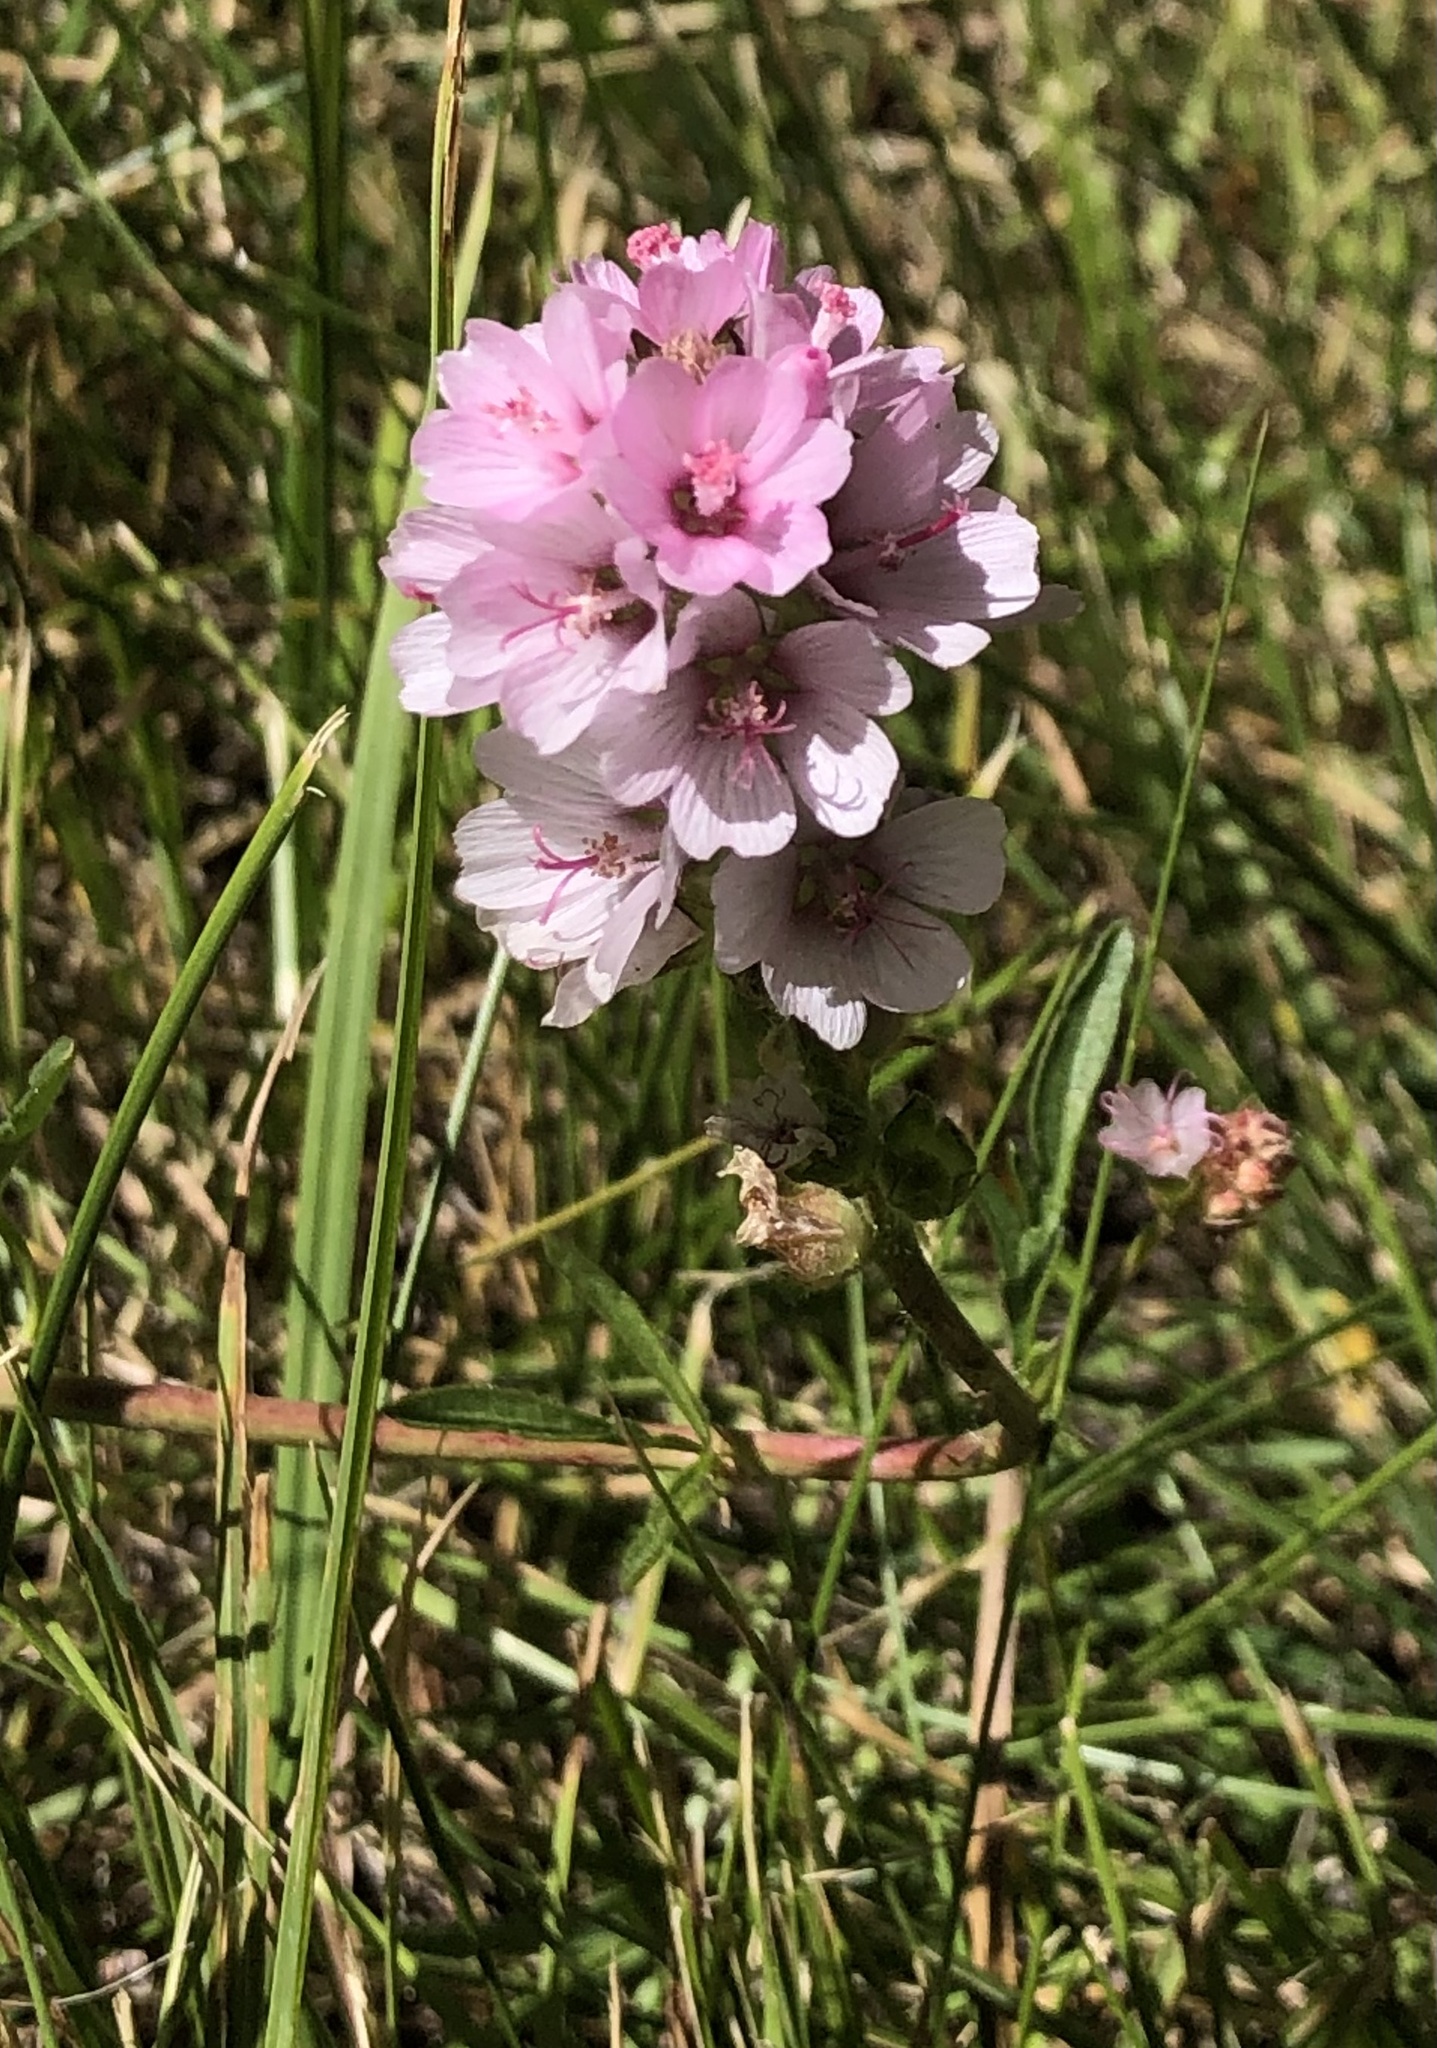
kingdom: Plantae
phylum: Tracheophyta
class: Magnoliopsida
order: Malvales
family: Malvaceae
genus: Sidalcea
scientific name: Sidalcea oregana
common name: Oregon checker-mallow
